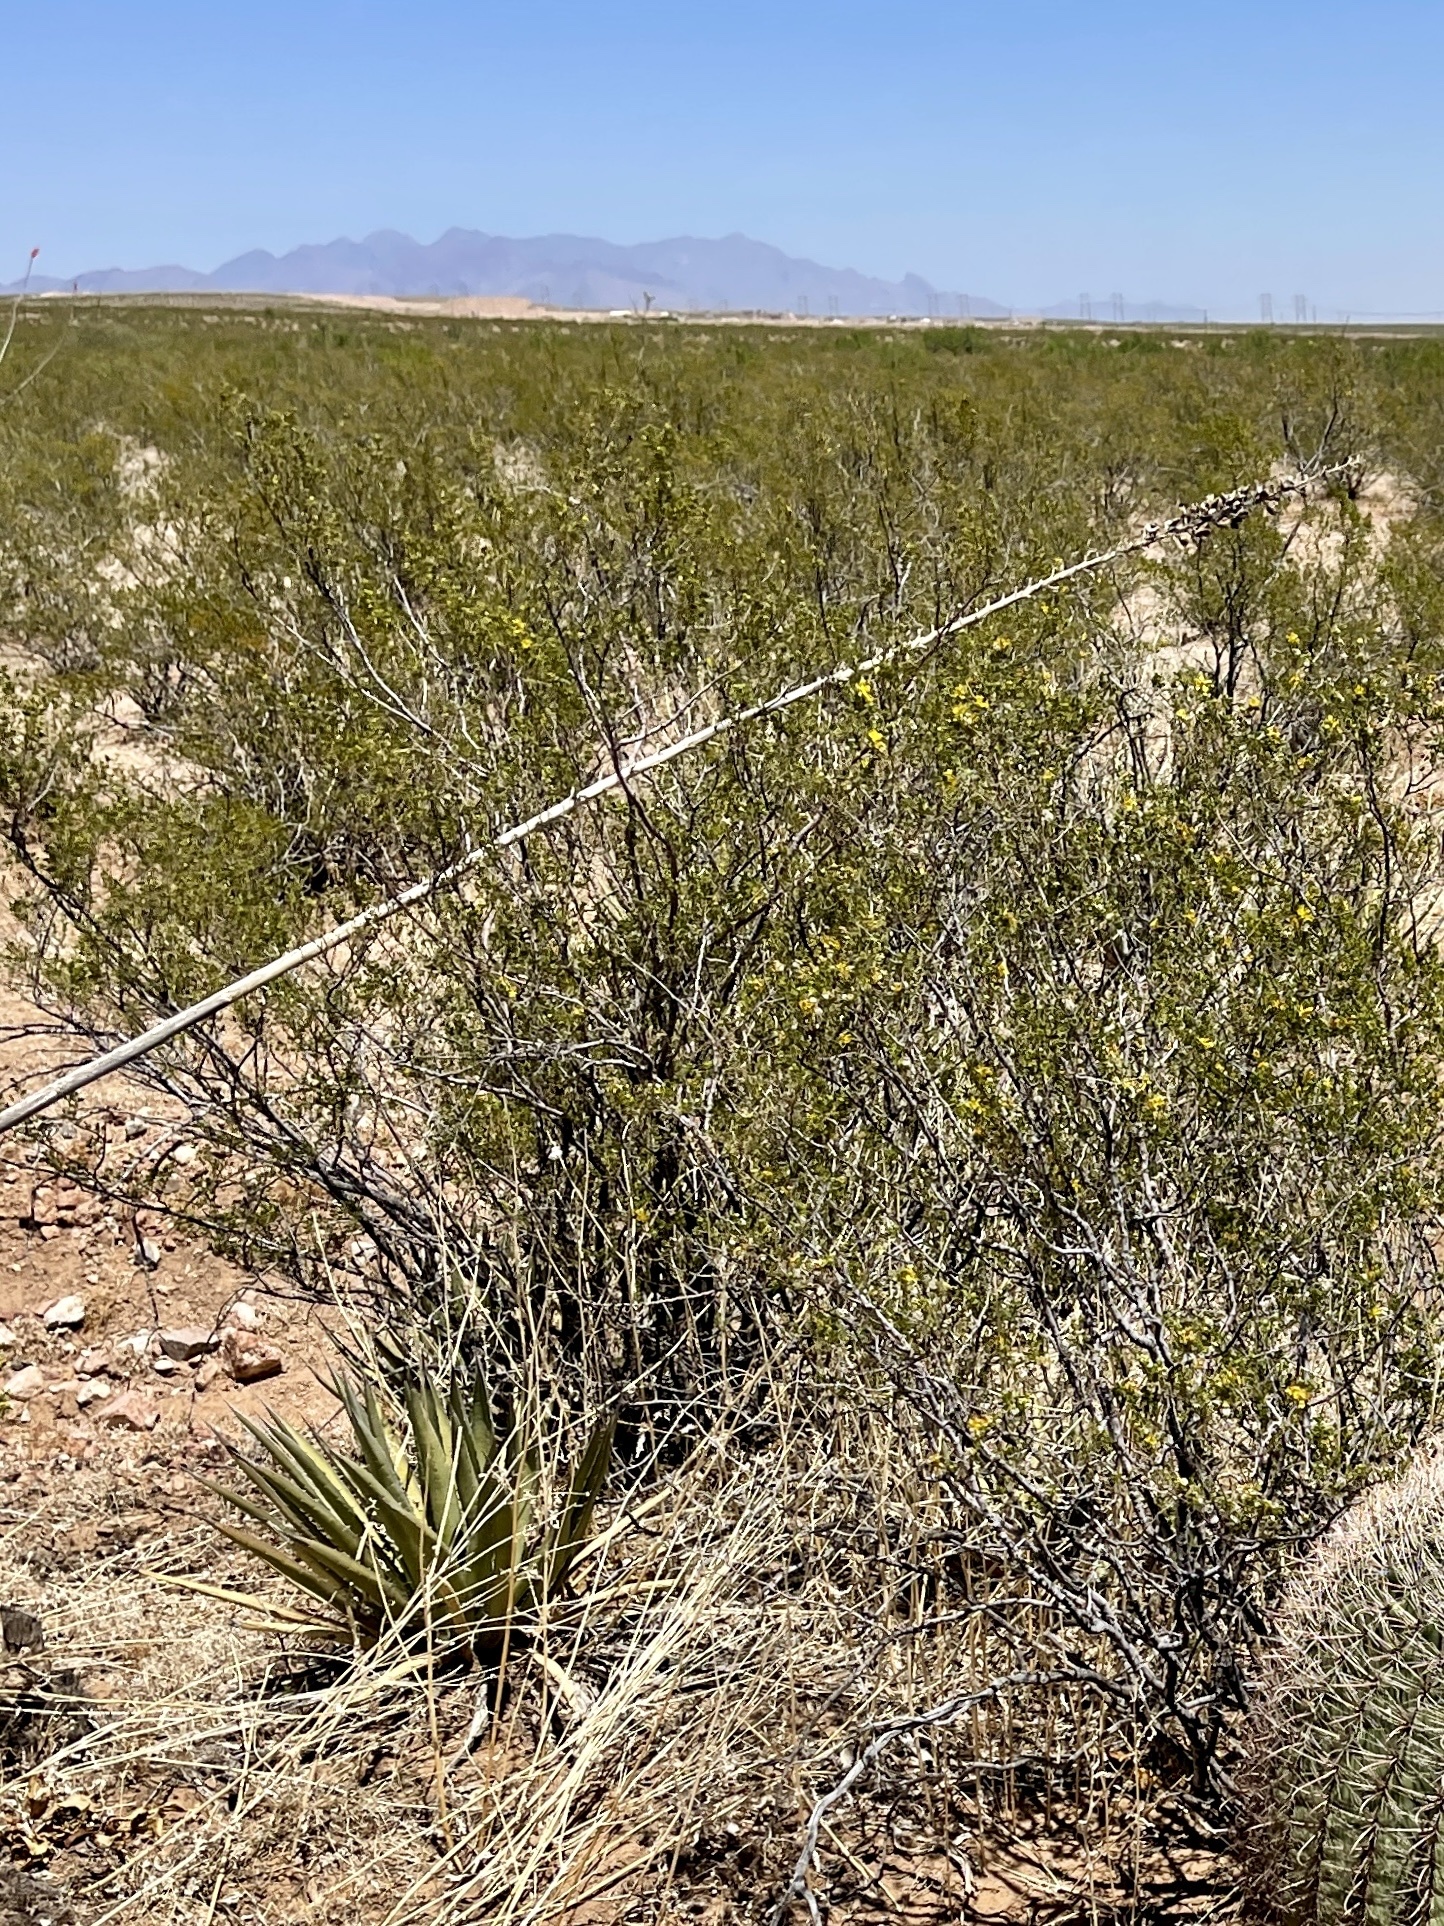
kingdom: Plantae
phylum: Tracheophyta
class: Magnoliopsida
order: Zygophyllales
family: Zygophyllaceae
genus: Larrea
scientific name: Larrea tridentata
